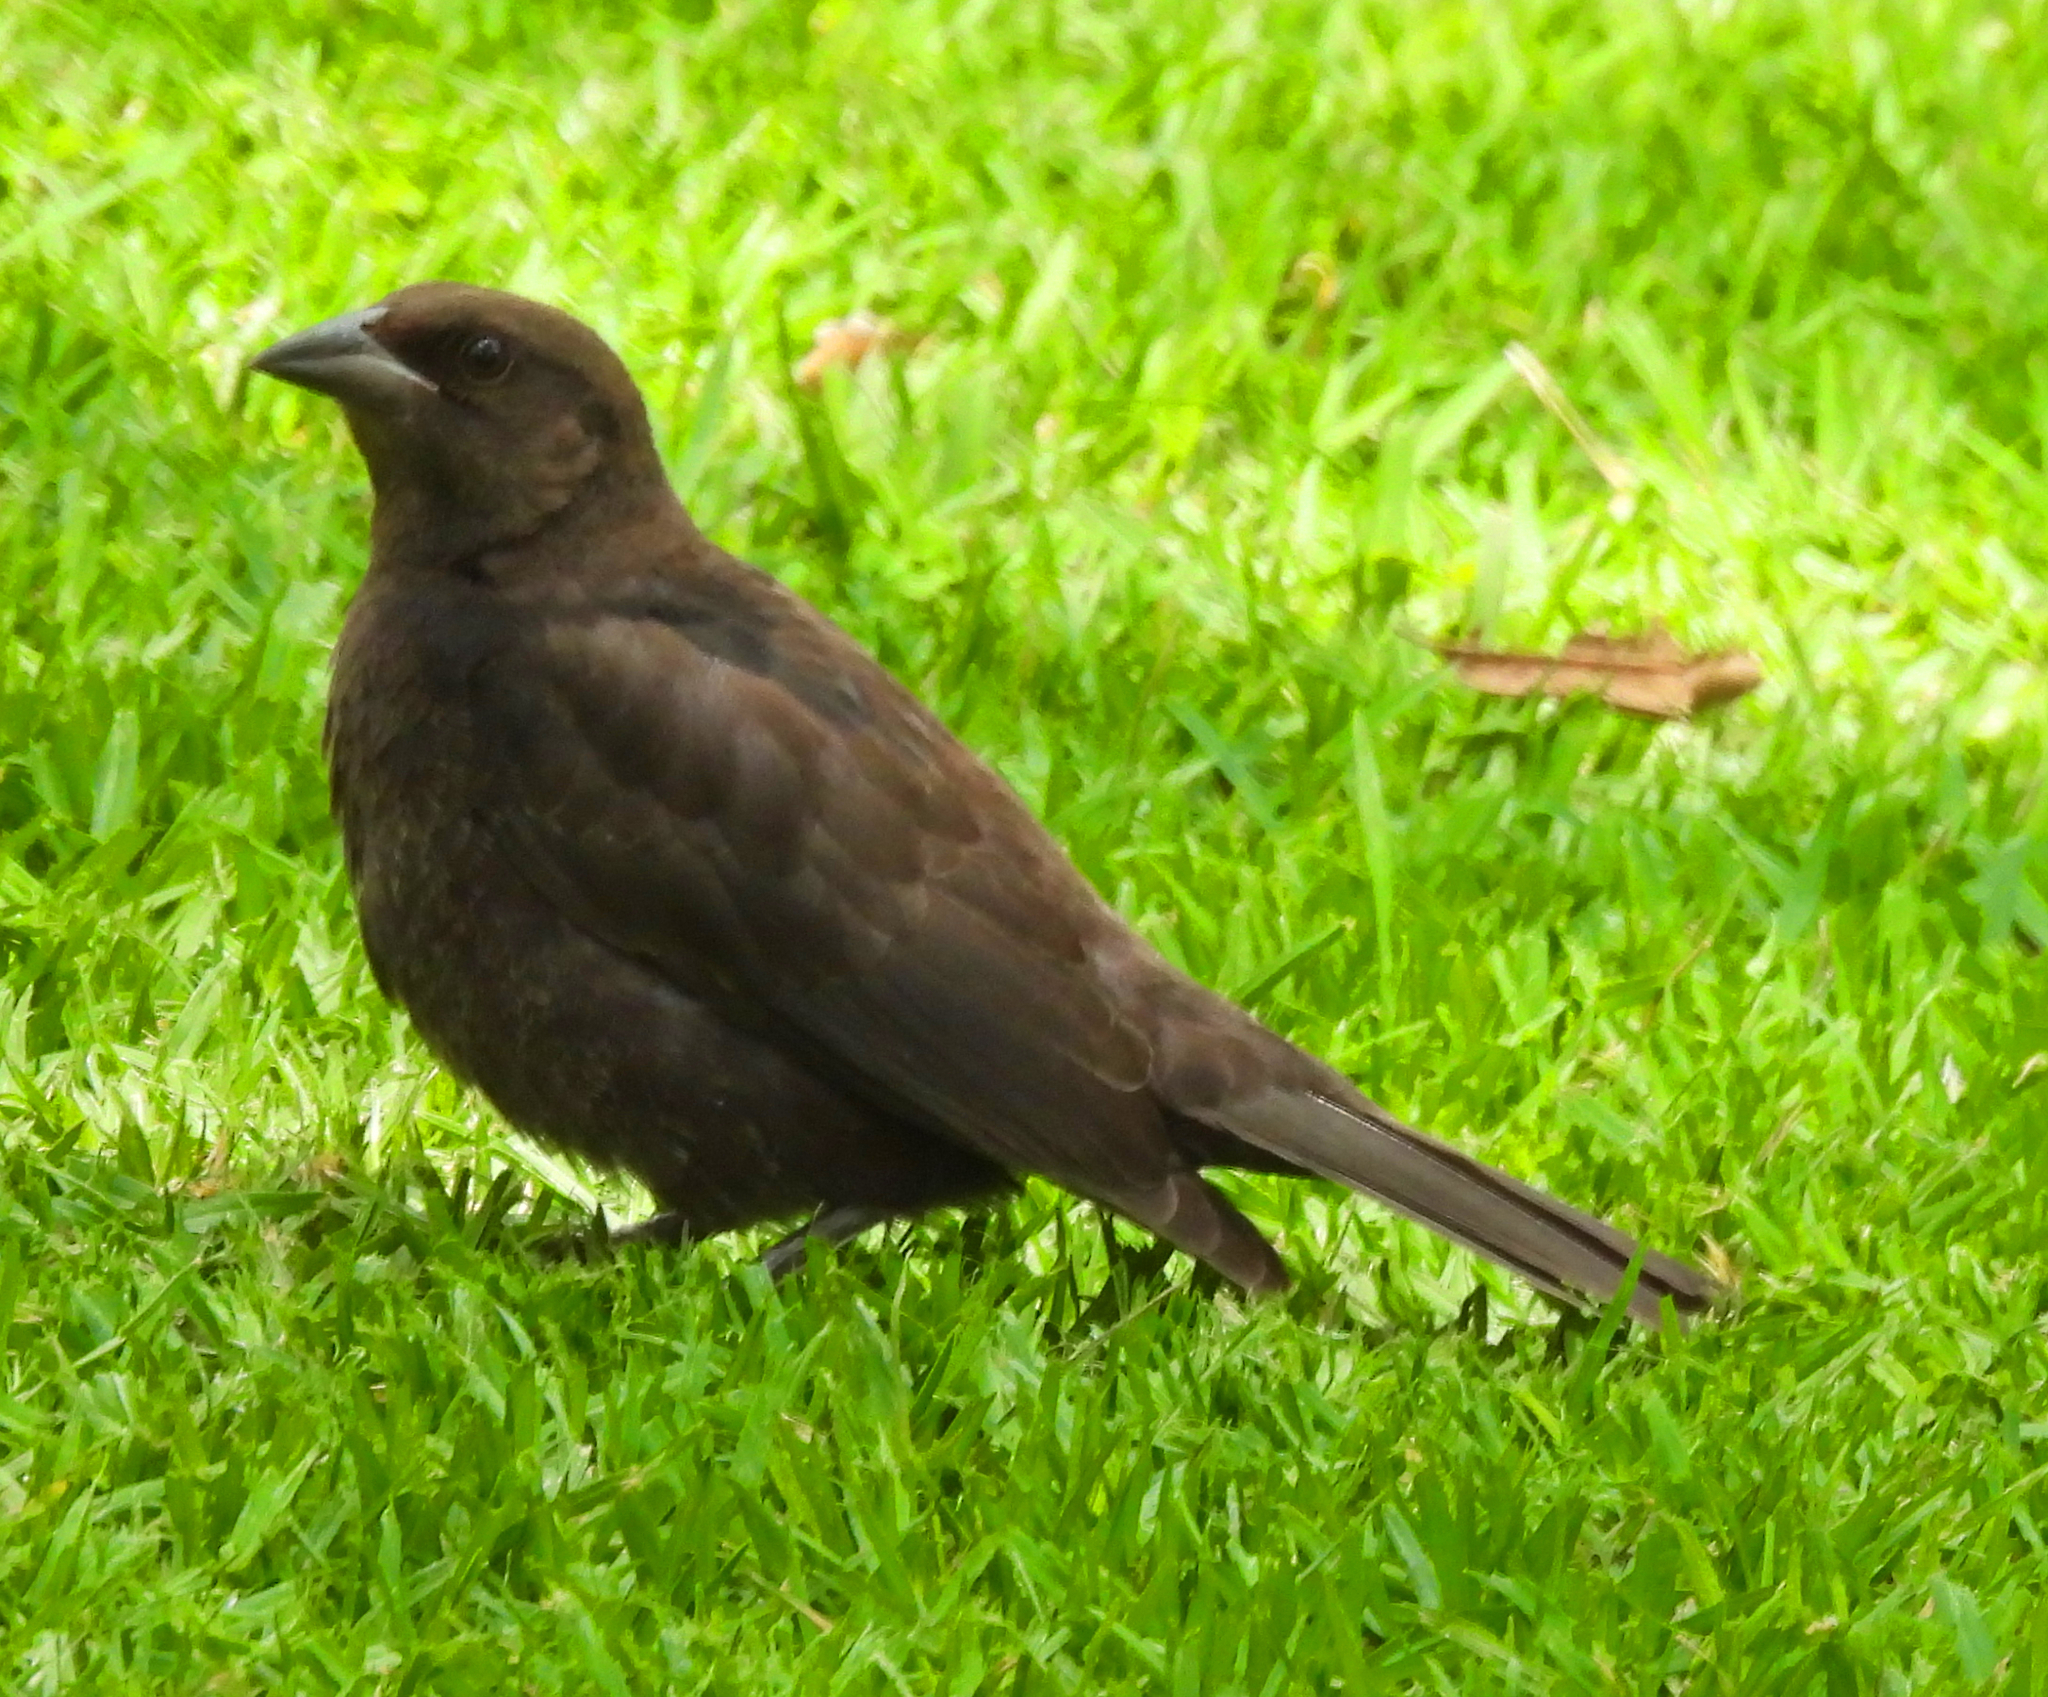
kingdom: Animalia
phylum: Chordata
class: Aves
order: Passeriformes
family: Icteridae
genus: Molothrus
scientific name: Molothrus aeneus
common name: Bronzed cowbird
